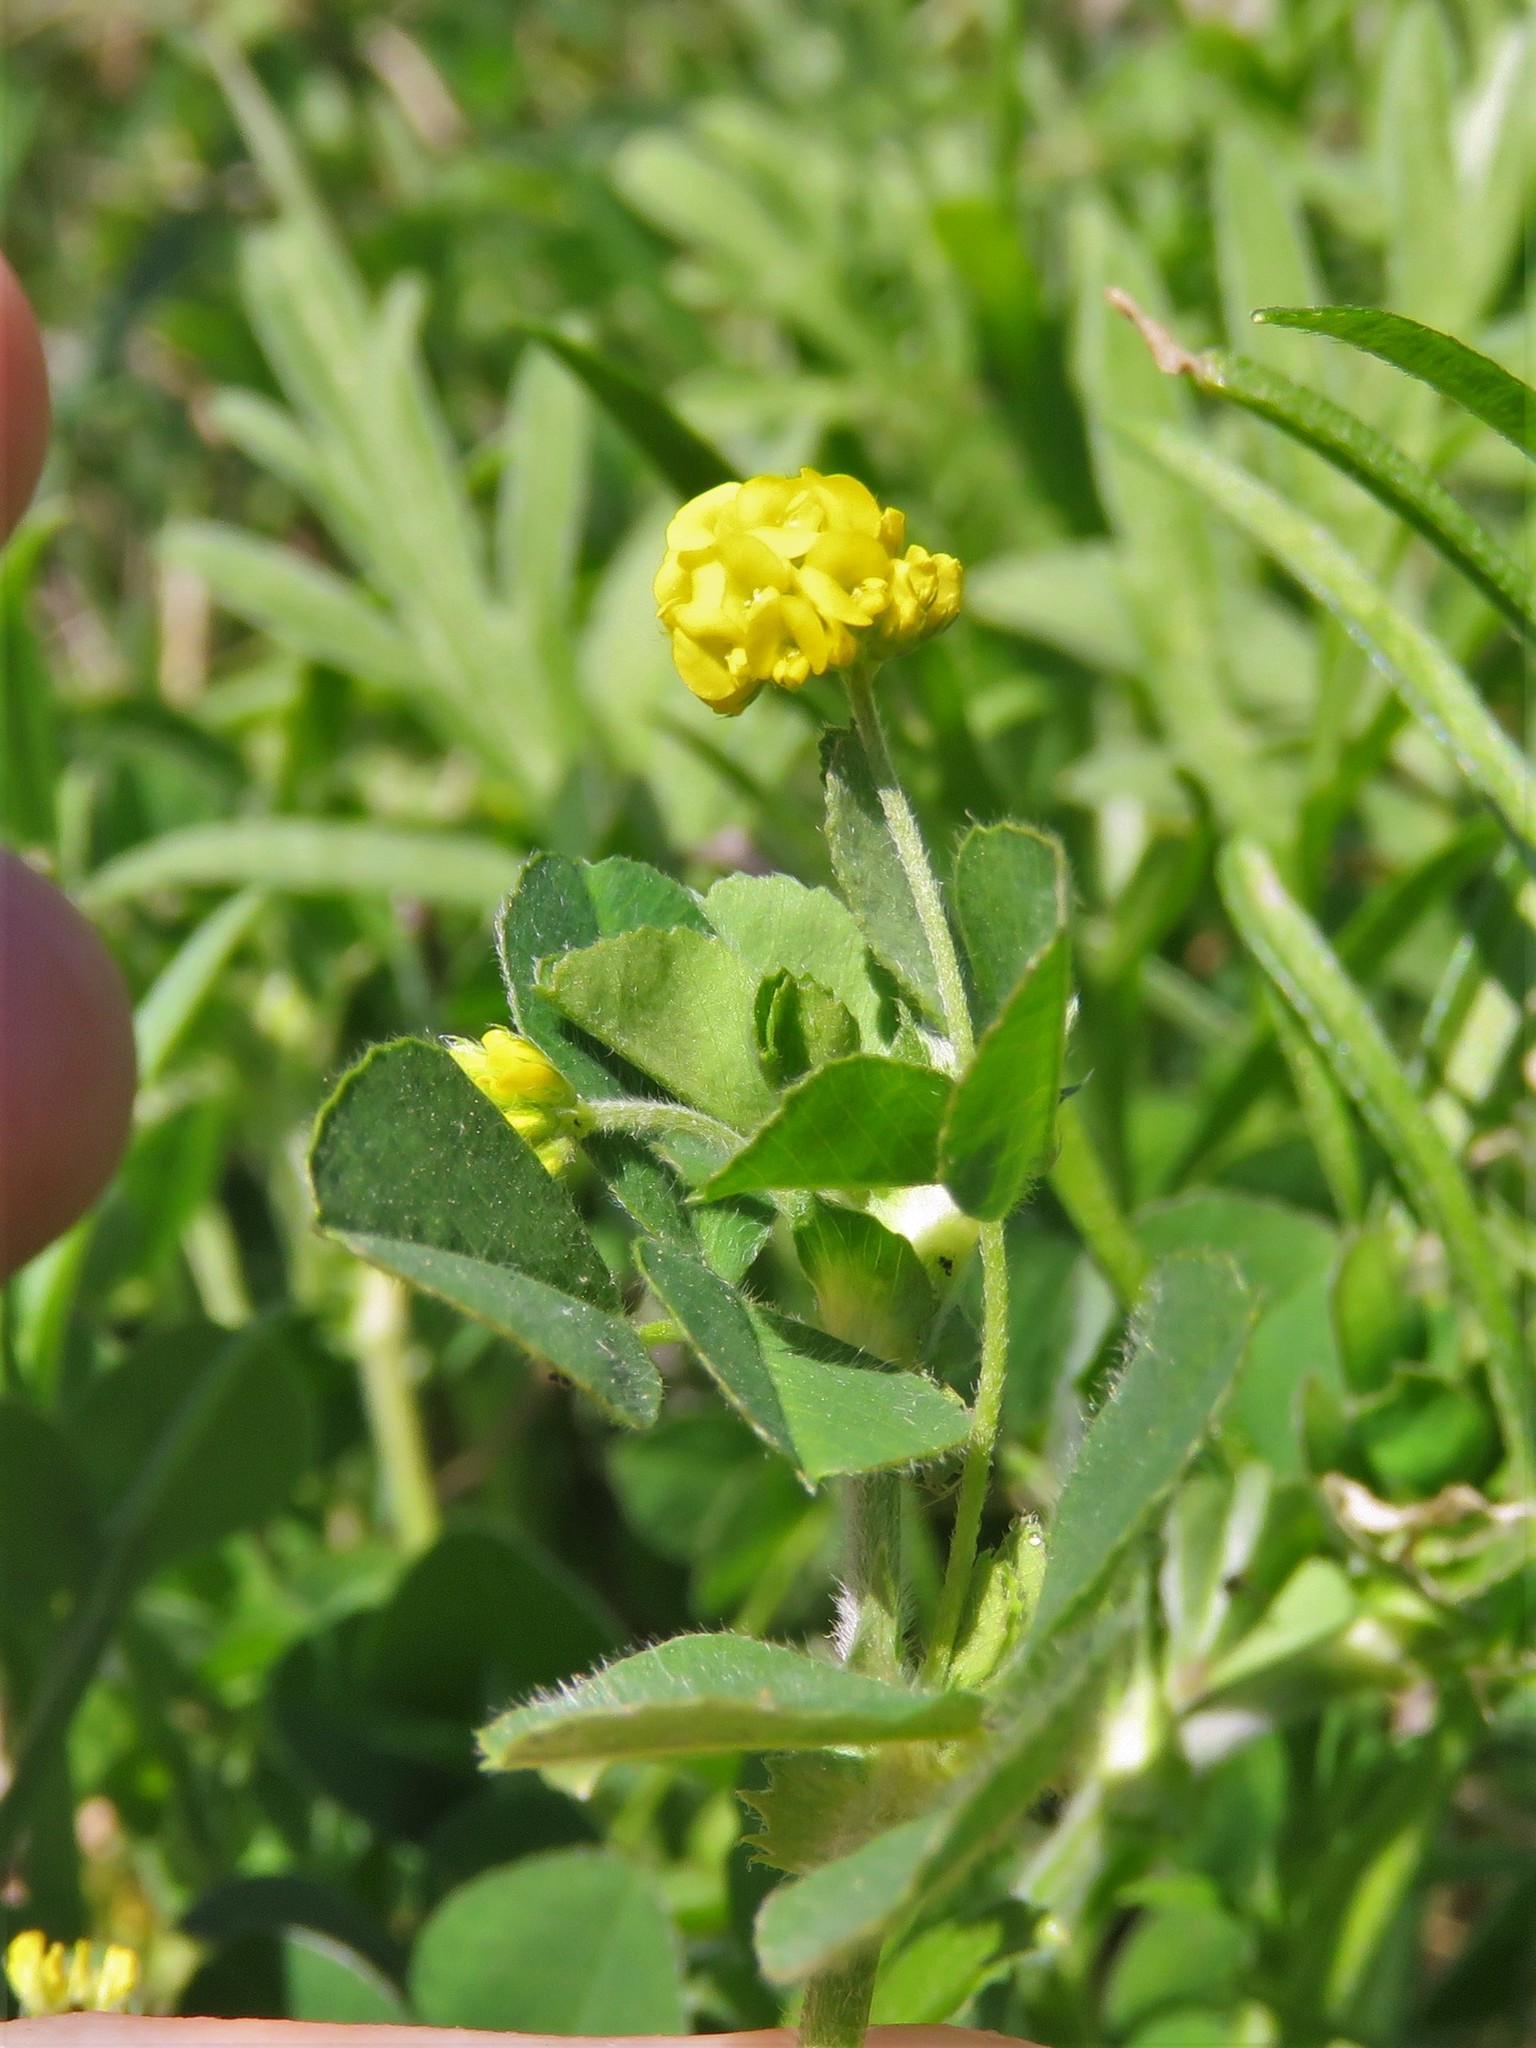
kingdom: Plantae
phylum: Tracheophyta
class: Magnoliopsida
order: Fabales
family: Fabaceae
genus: Medicago
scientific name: Medicago lupulina
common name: Black medick
